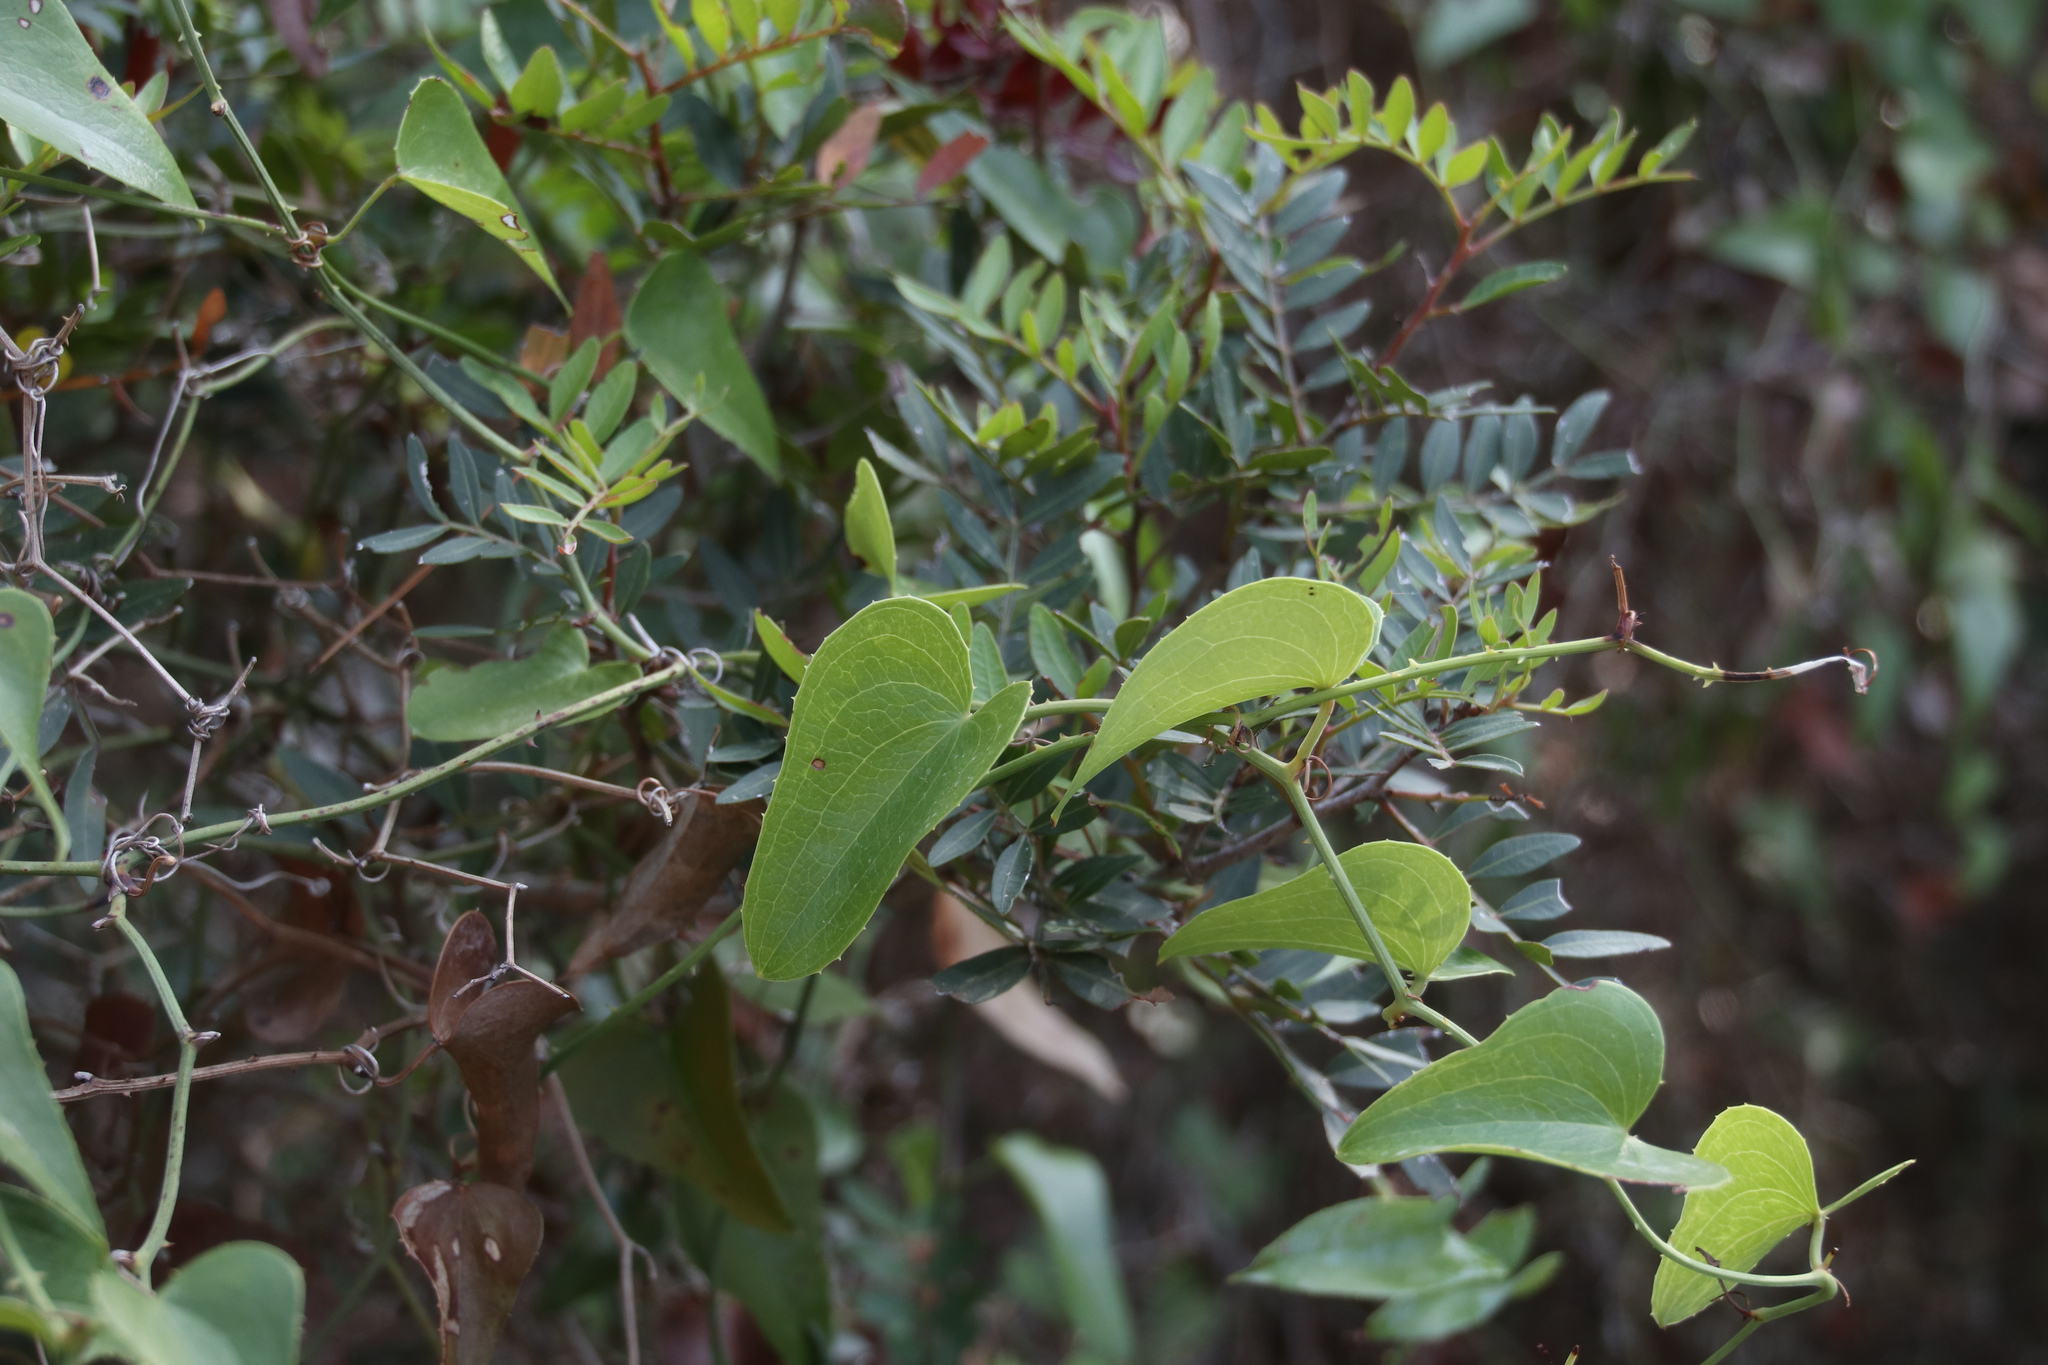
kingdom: Plantae
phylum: Tracheophyta
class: Liliopsida
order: Liliales
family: Smilacaceae
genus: Smilax
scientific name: Smilax aspera
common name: Common smilax
